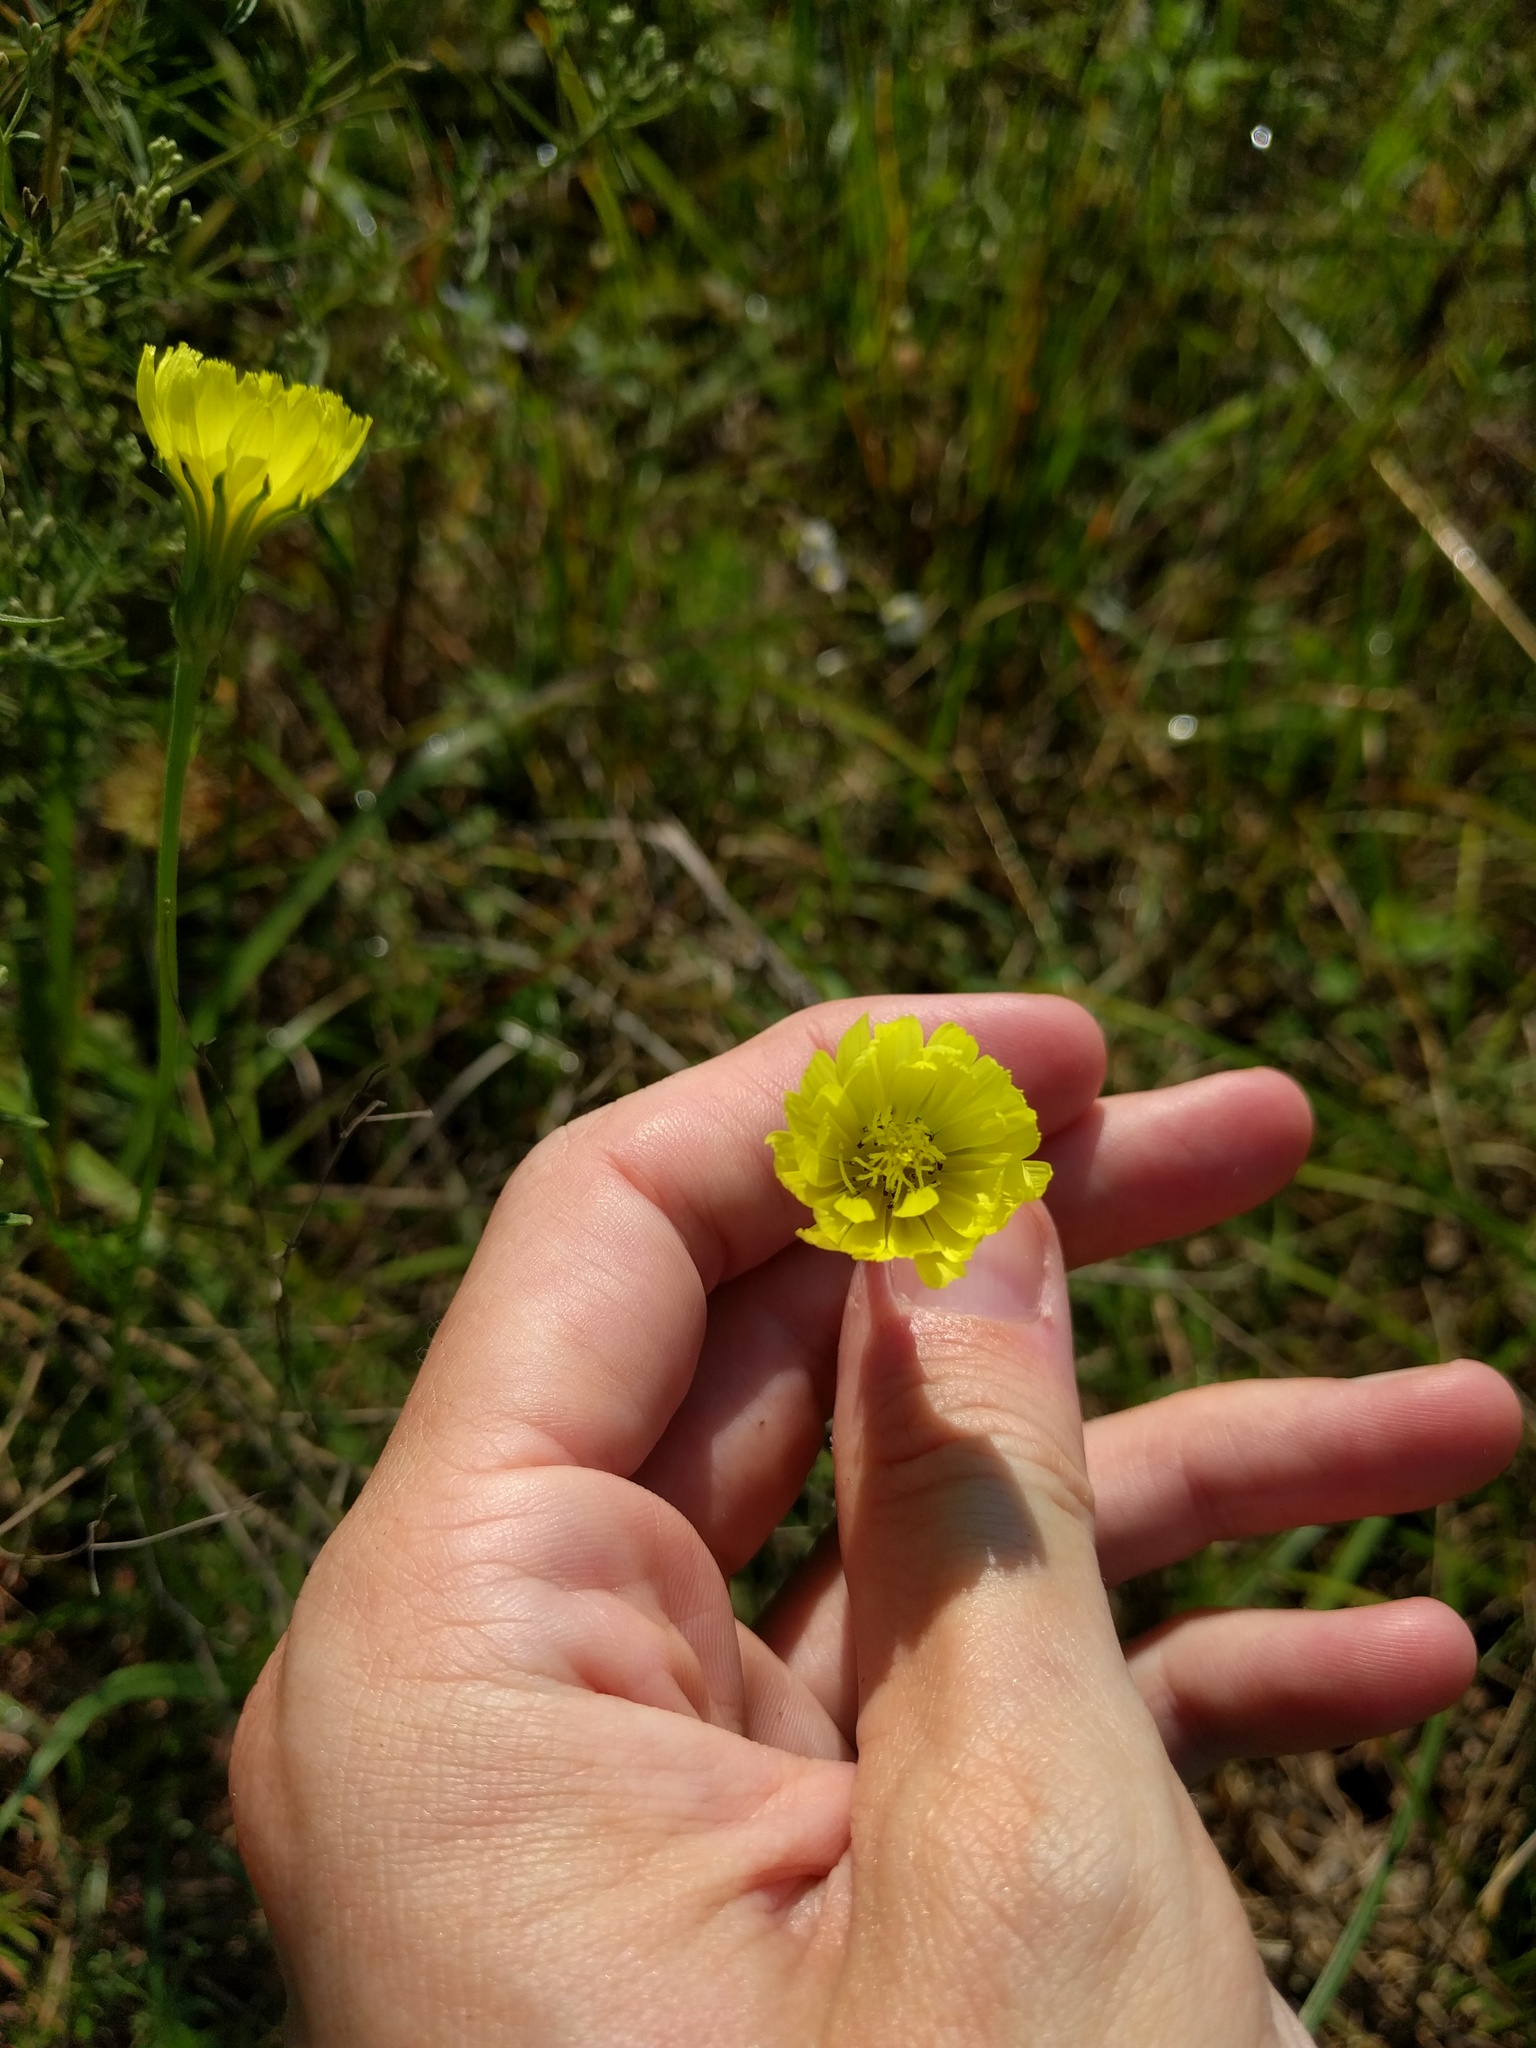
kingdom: Plantae
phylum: Tracheophyta
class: Magnoliopsida
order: Asterales
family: Asteraceae
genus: Pyrrhopappus
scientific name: Pyrrhopappus carolinianus
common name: Carolina desert-chicory
